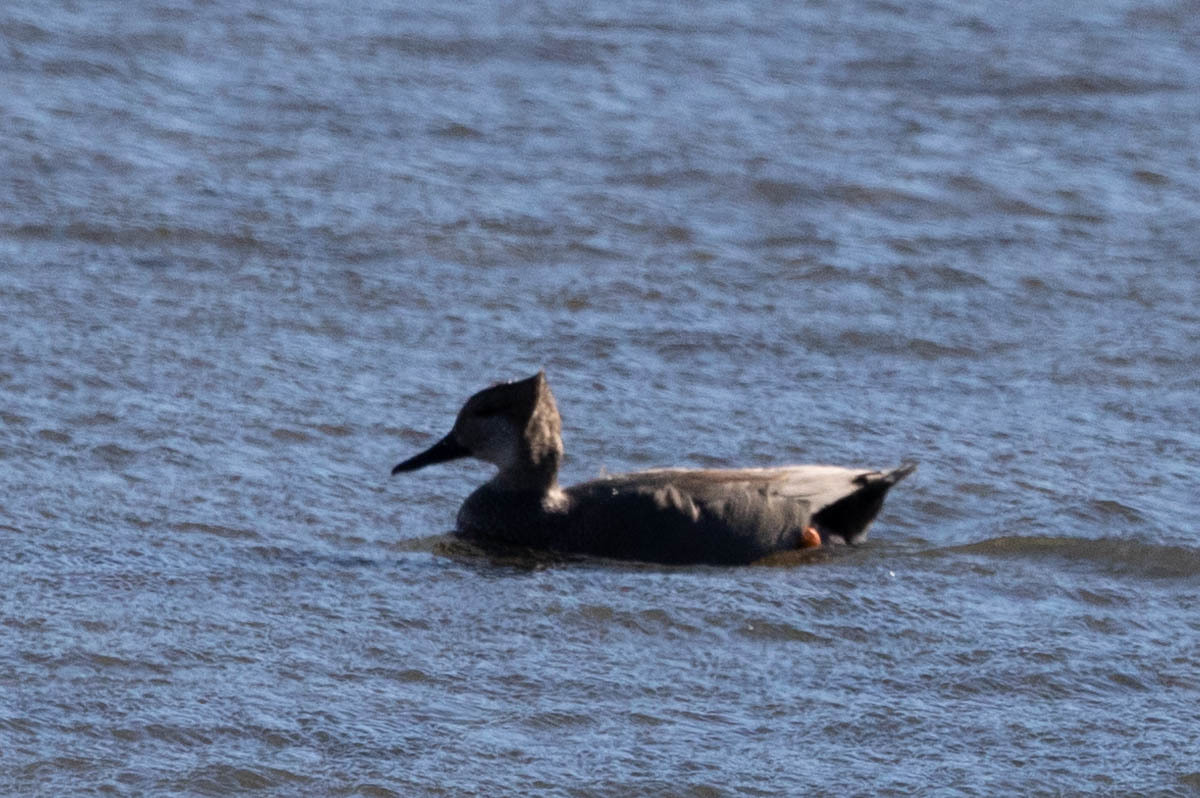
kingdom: Animalia
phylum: Chordata
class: Aves
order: Anseriformes
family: Anatidae
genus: Mareca
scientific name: Mareca strepera
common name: Gadwall
